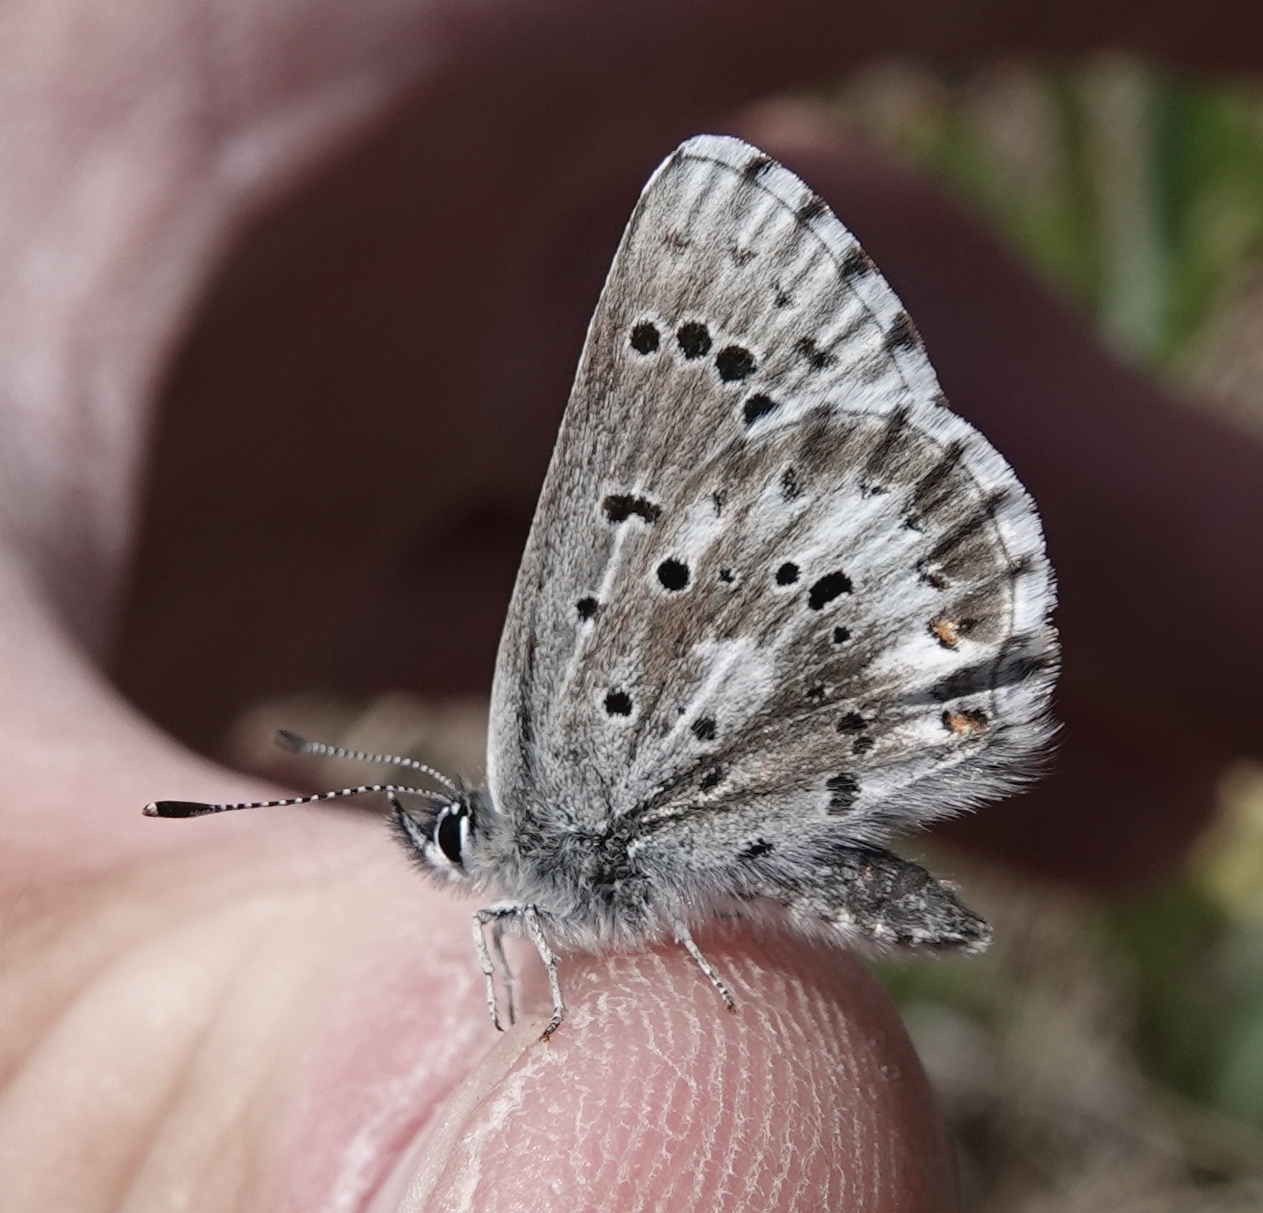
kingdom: Animalia
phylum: Arthropoda
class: Insecta
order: Lepidoptera
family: Lycaenidae
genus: Glaucopsyche
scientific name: Glaucopsyche piasus
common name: Arrowhead blue
